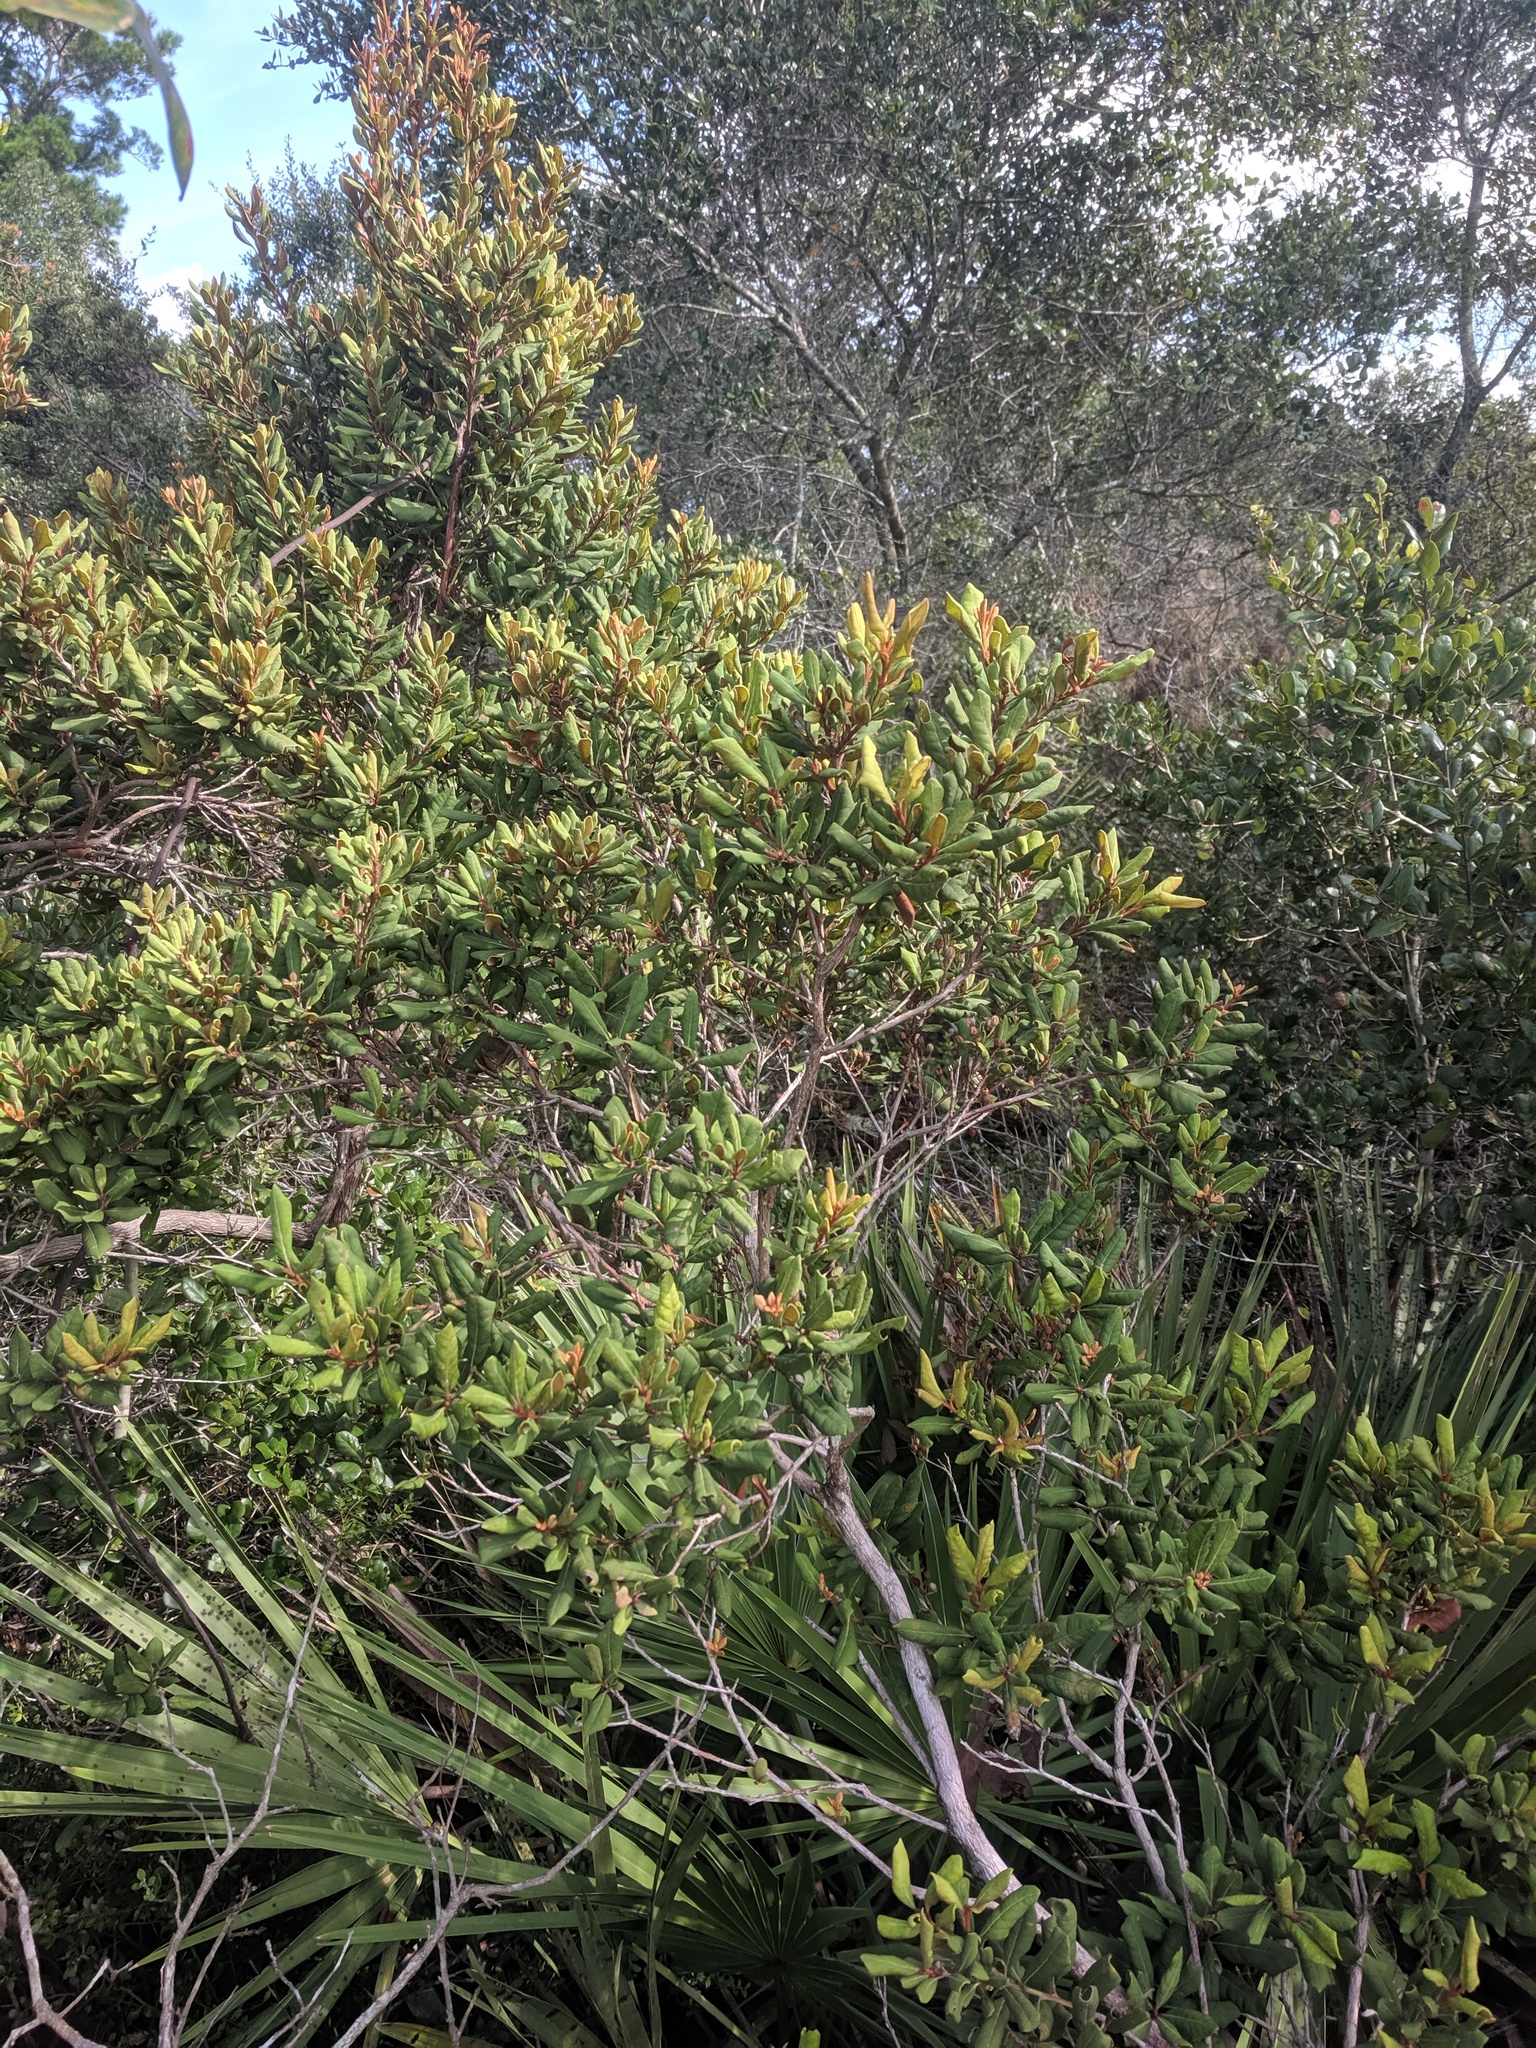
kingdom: Plantae
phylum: Tracheophyta
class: Magnoliopsida
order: Ericales
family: Ericaceae
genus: Lyonia
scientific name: Lyonia ferruginea
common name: Rusty lyonia
